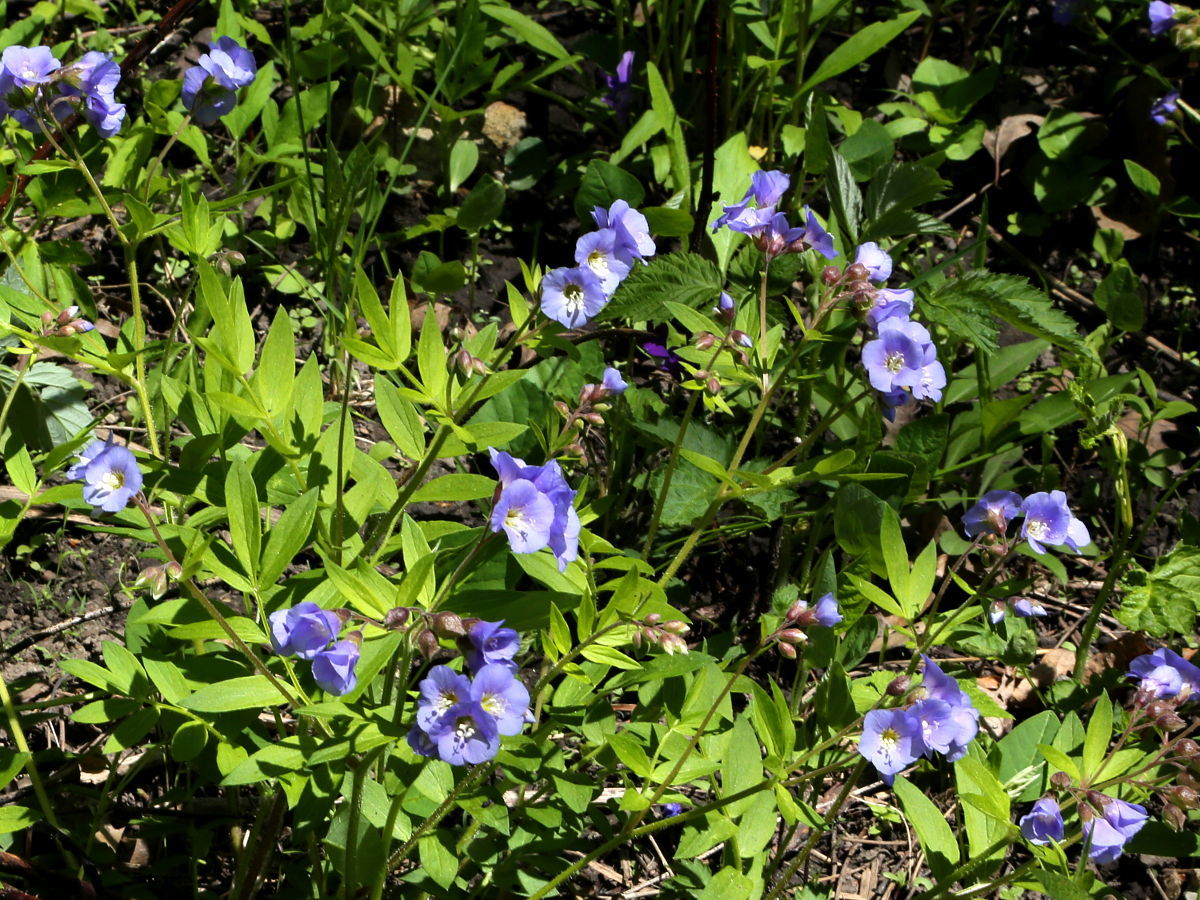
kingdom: Plantae
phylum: Tracheophyta
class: Magnoliopsida
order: Ericales
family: Polemoniaceae
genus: Polemonium
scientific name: Polemonium reptans
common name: Creeping jacob's-ladder
